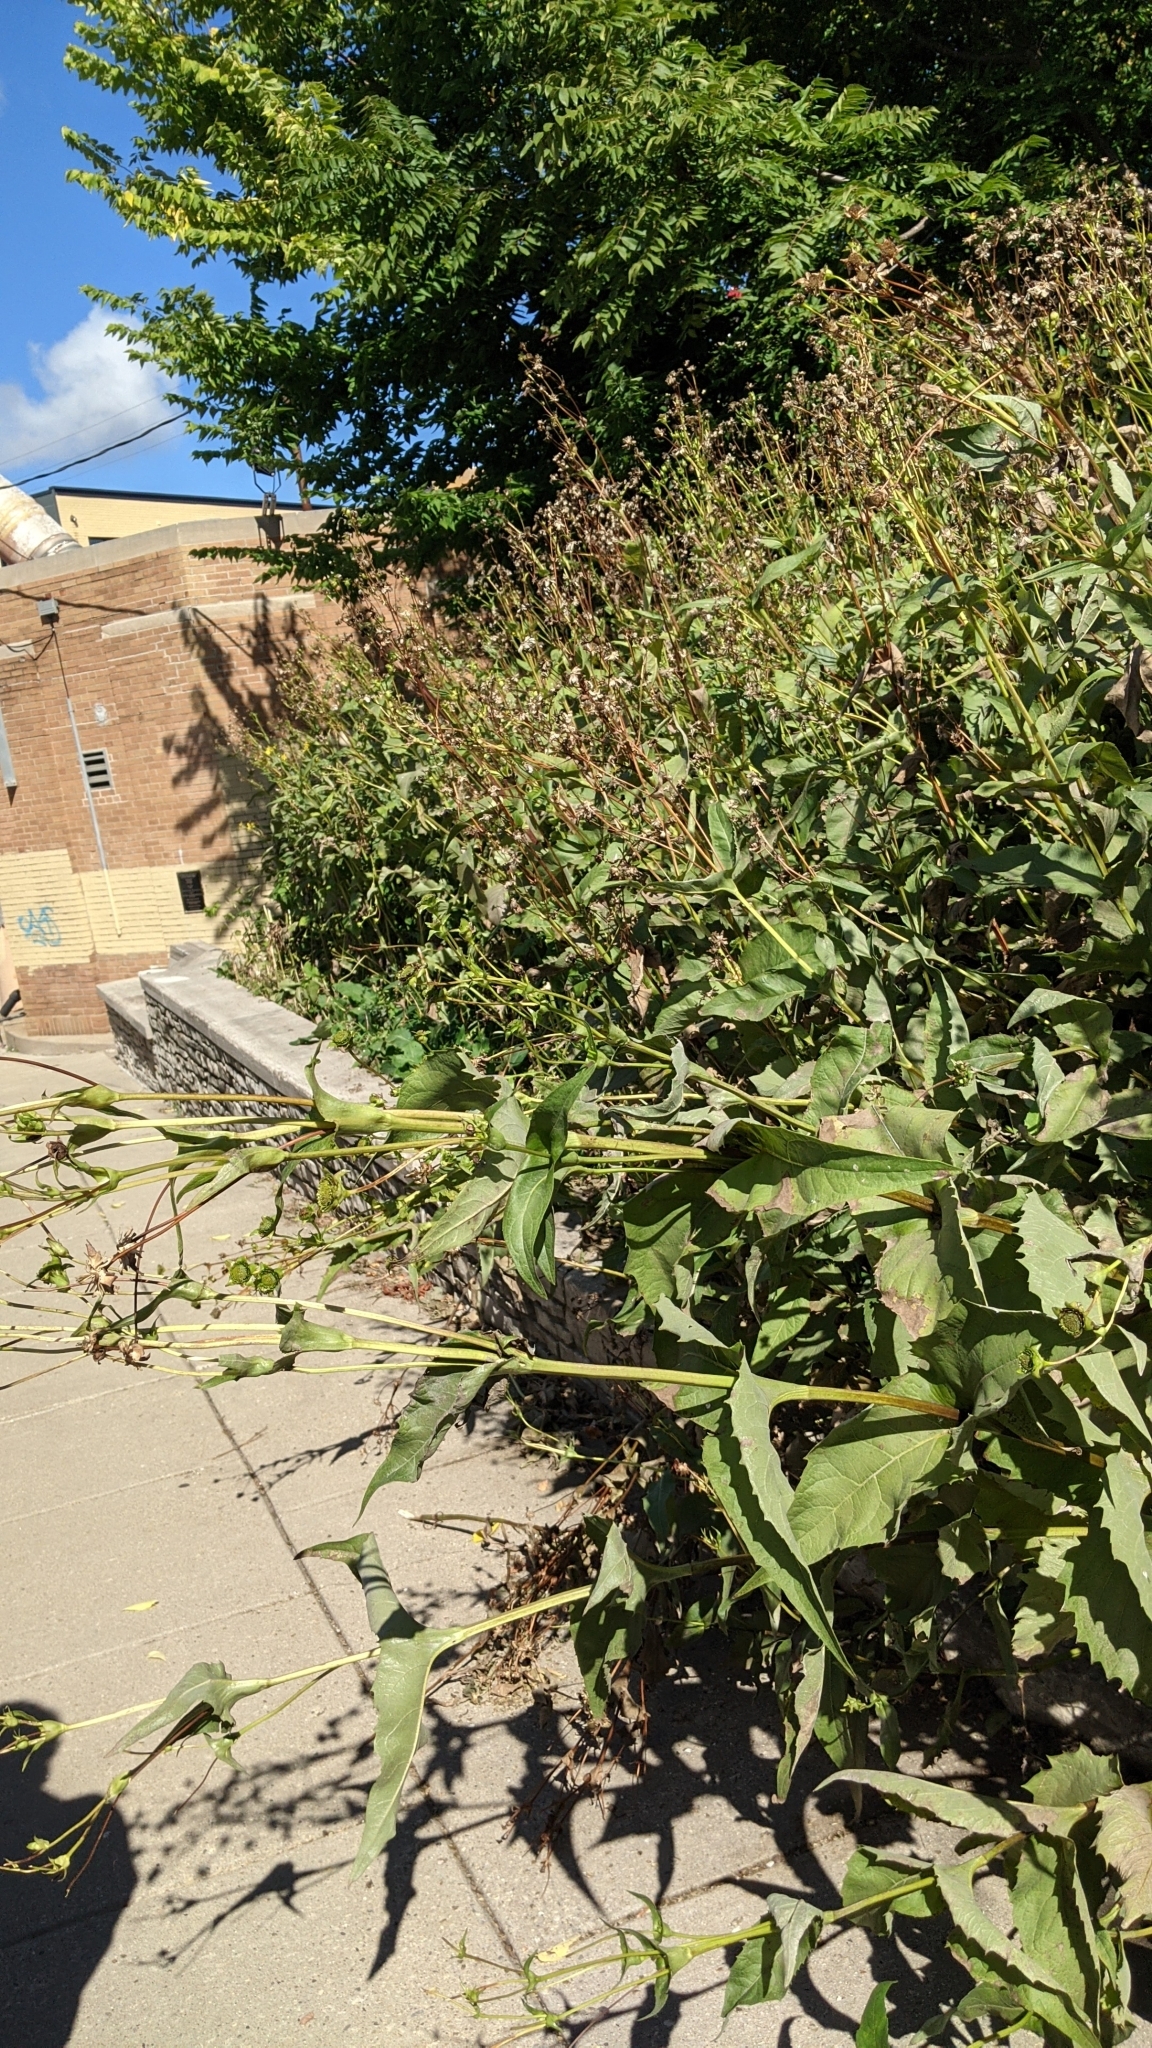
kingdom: Plantae
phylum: Tracheophyta
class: Magnoliopsida
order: Asterales
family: Asteraceae
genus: Silphium
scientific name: Silphium perfoliatum
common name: Cup-plant
